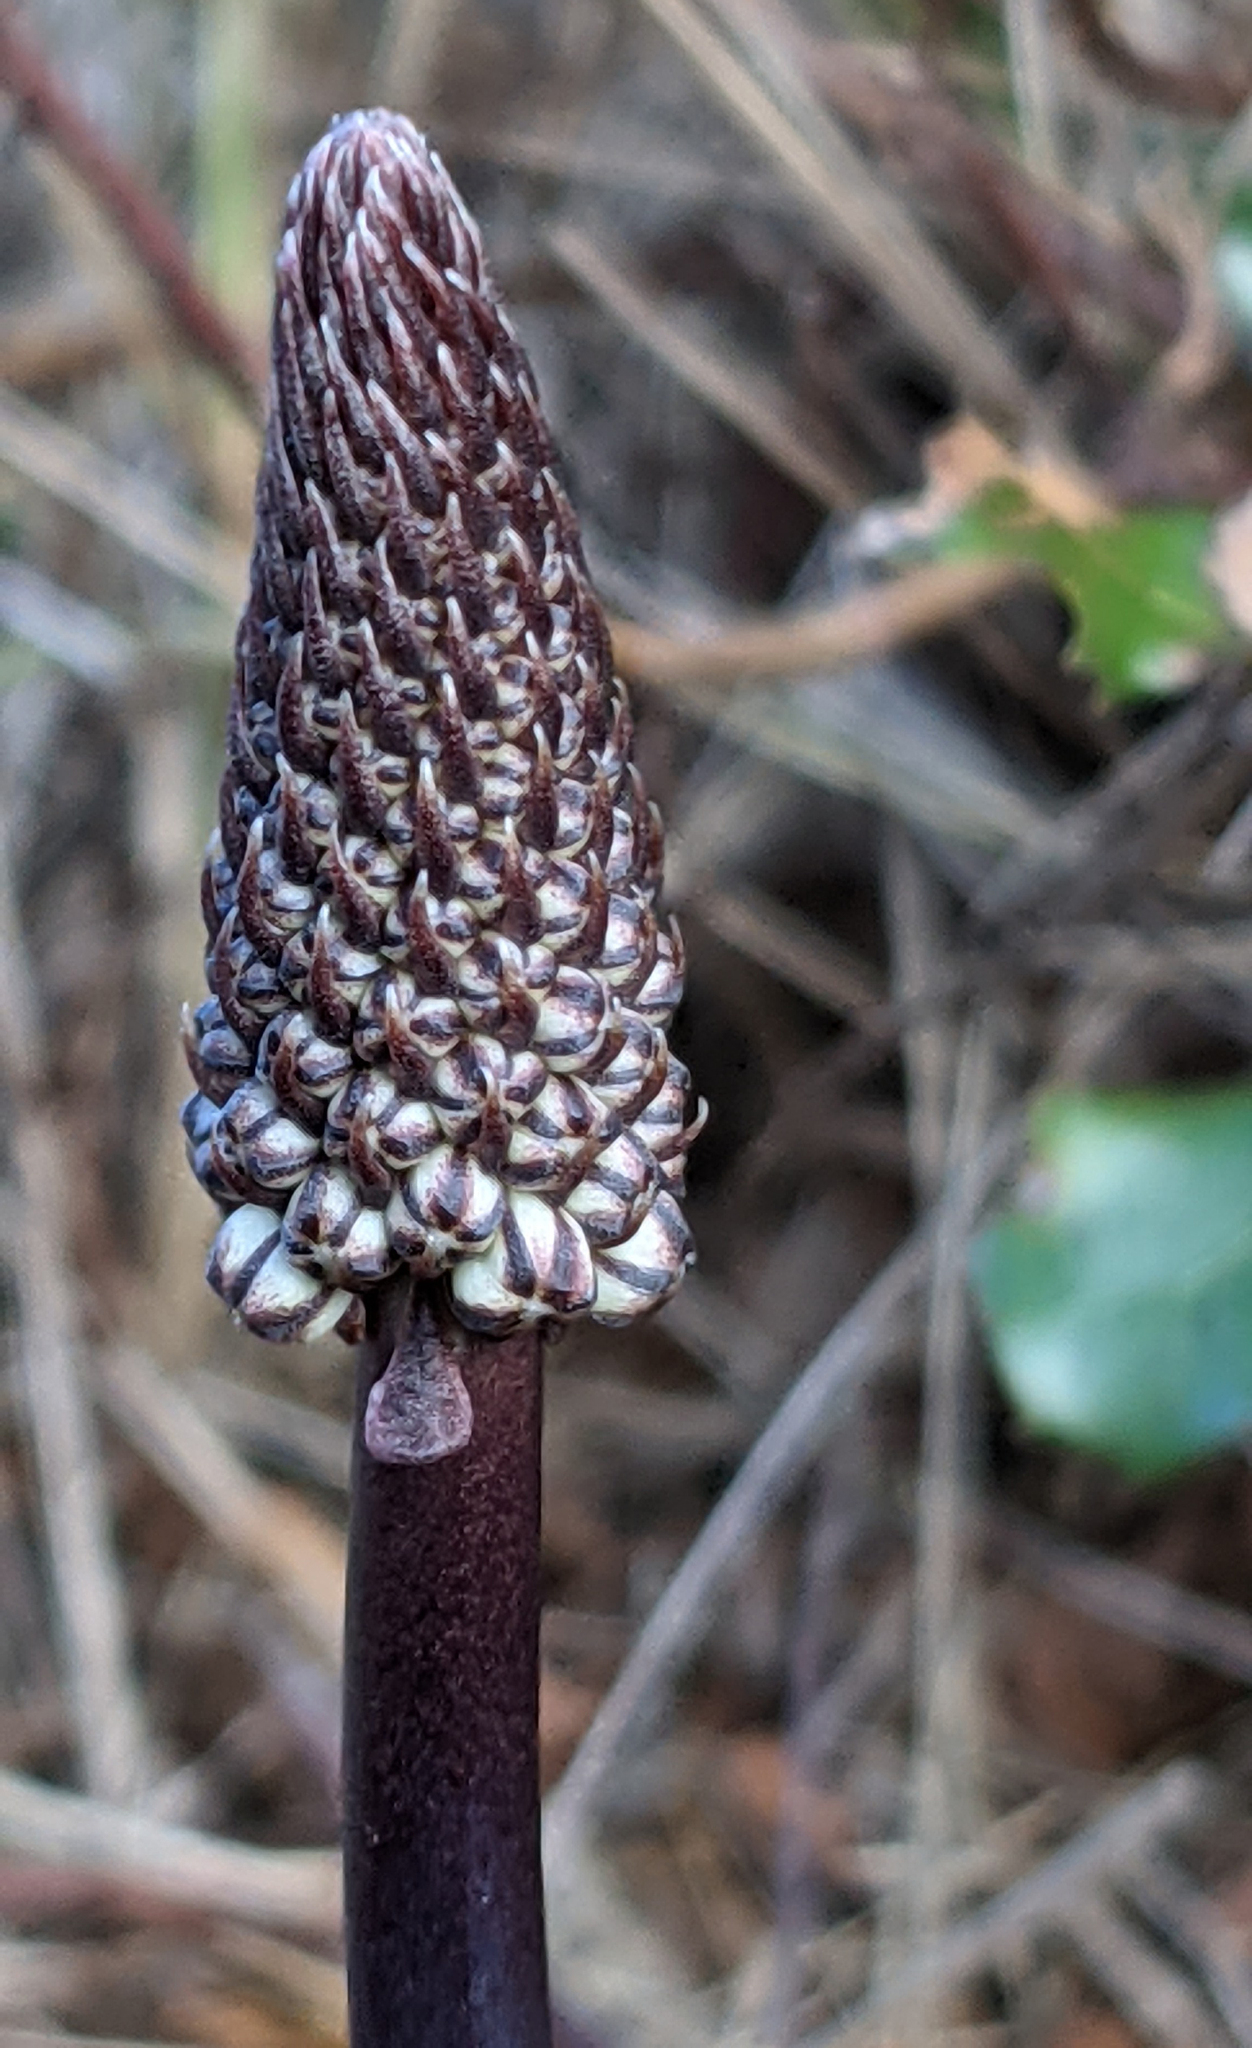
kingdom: Plantae
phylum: Tracheophyta
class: Liliopsida
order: Asparagales
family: Asparagaceae
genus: Drimia
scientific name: Drimia maritima
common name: Maritime squill
